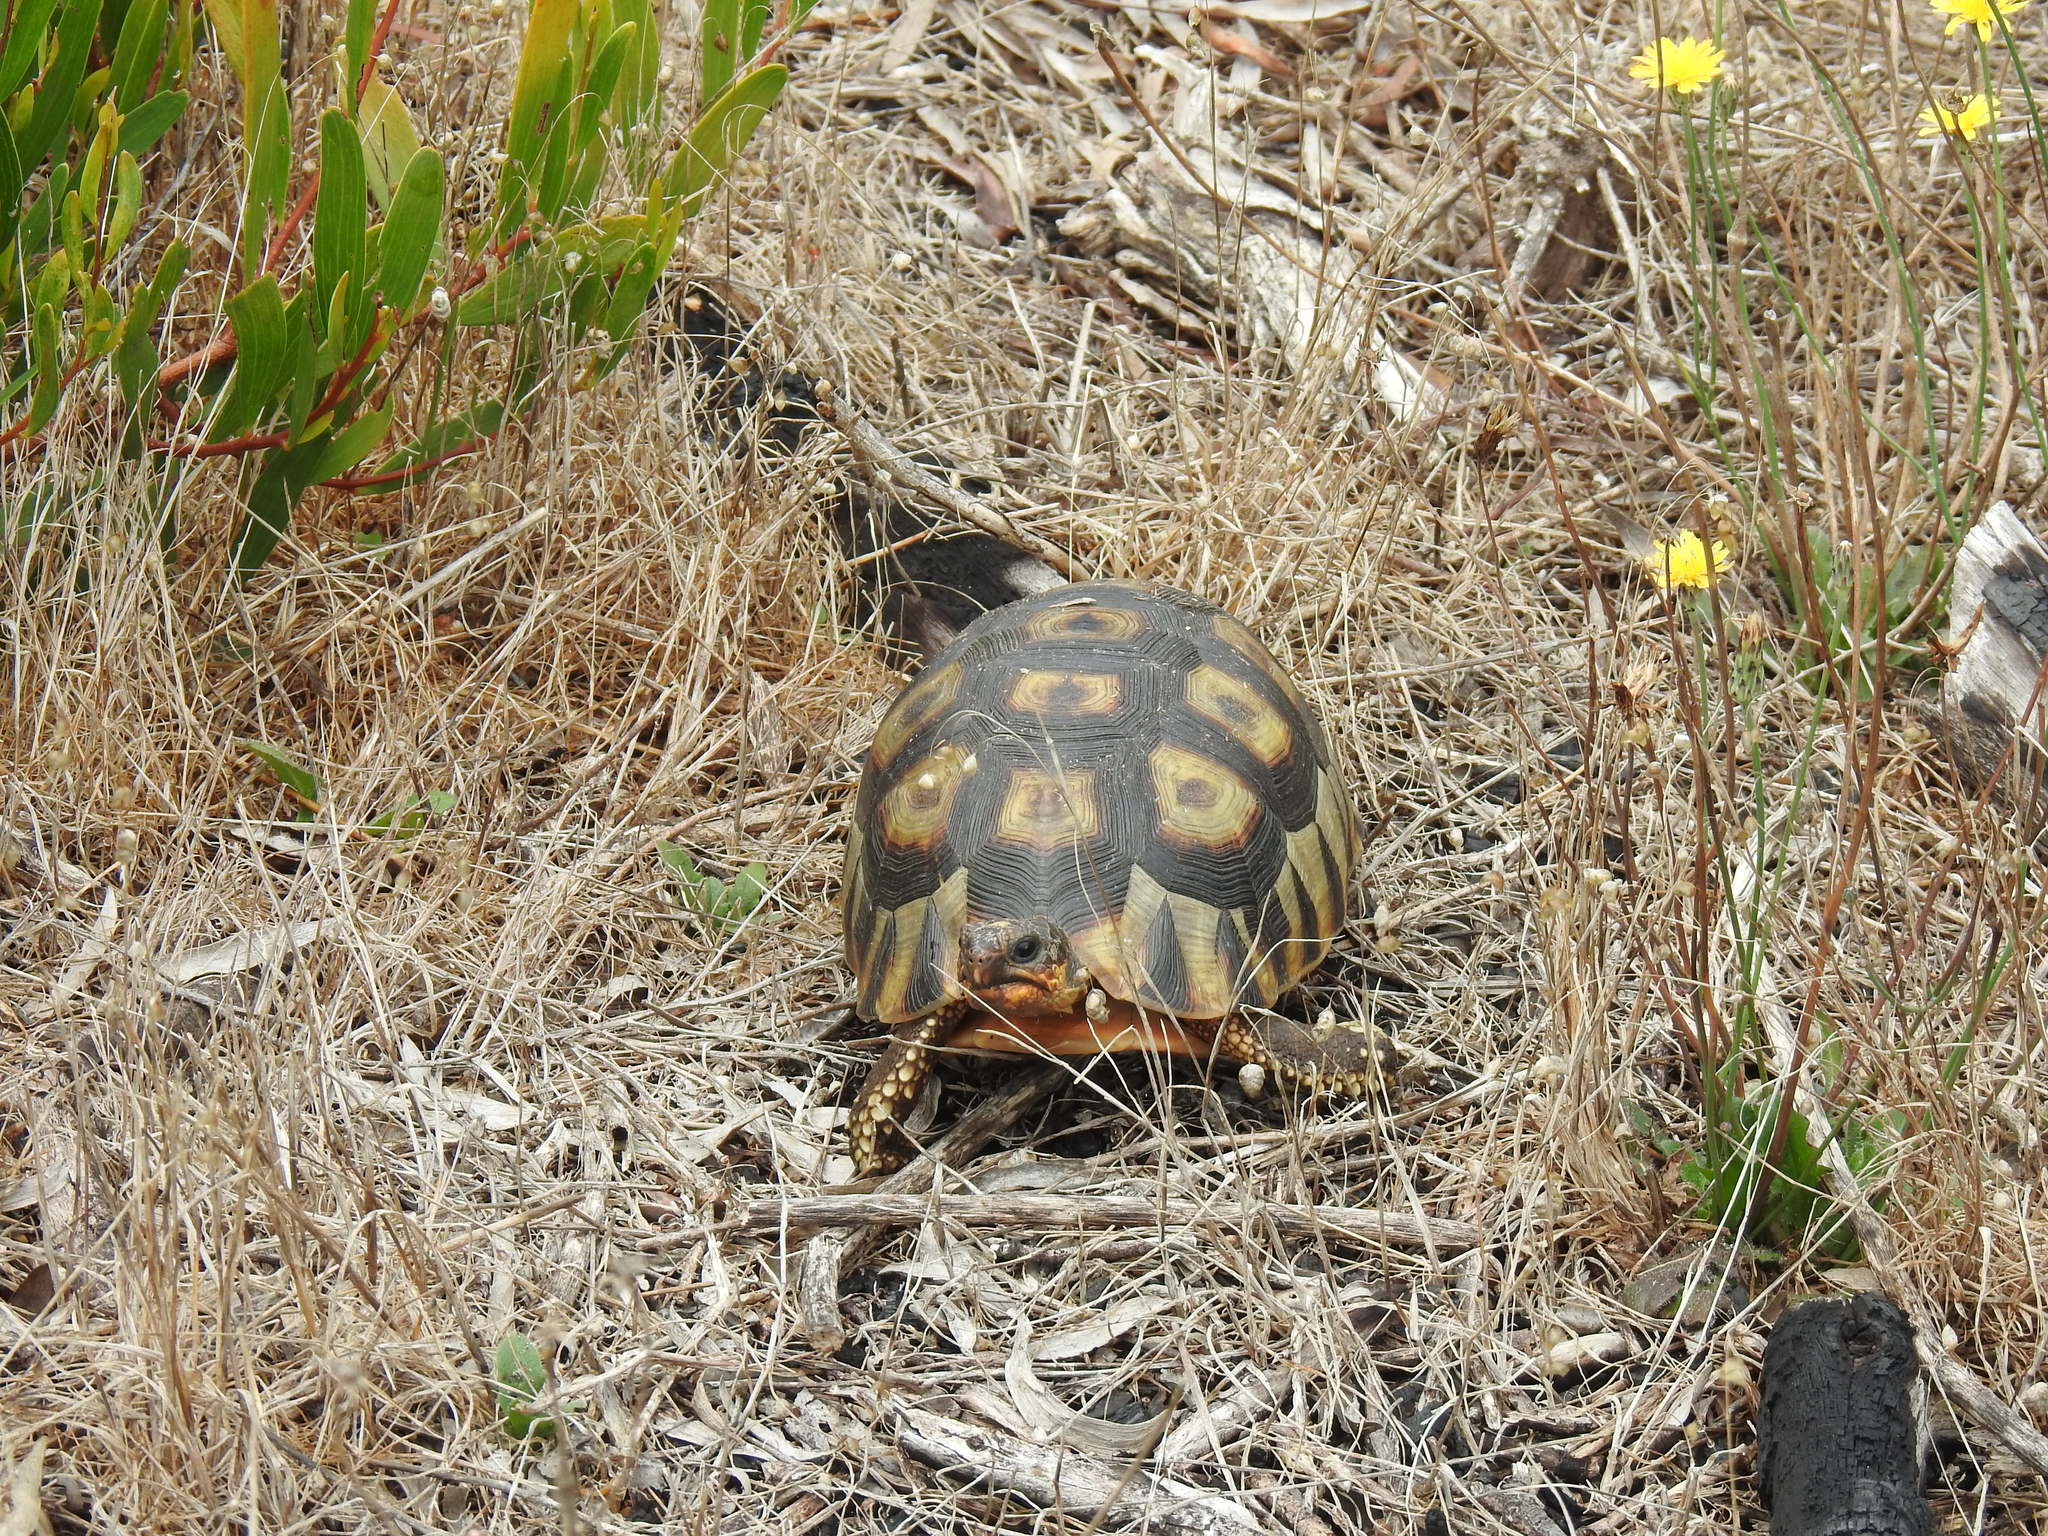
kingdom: Animalia
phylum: Chordata
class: Testudines
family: Testudinidae
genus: Chersina
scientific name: Chersina angulata
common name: South african bowsprit tortoise
